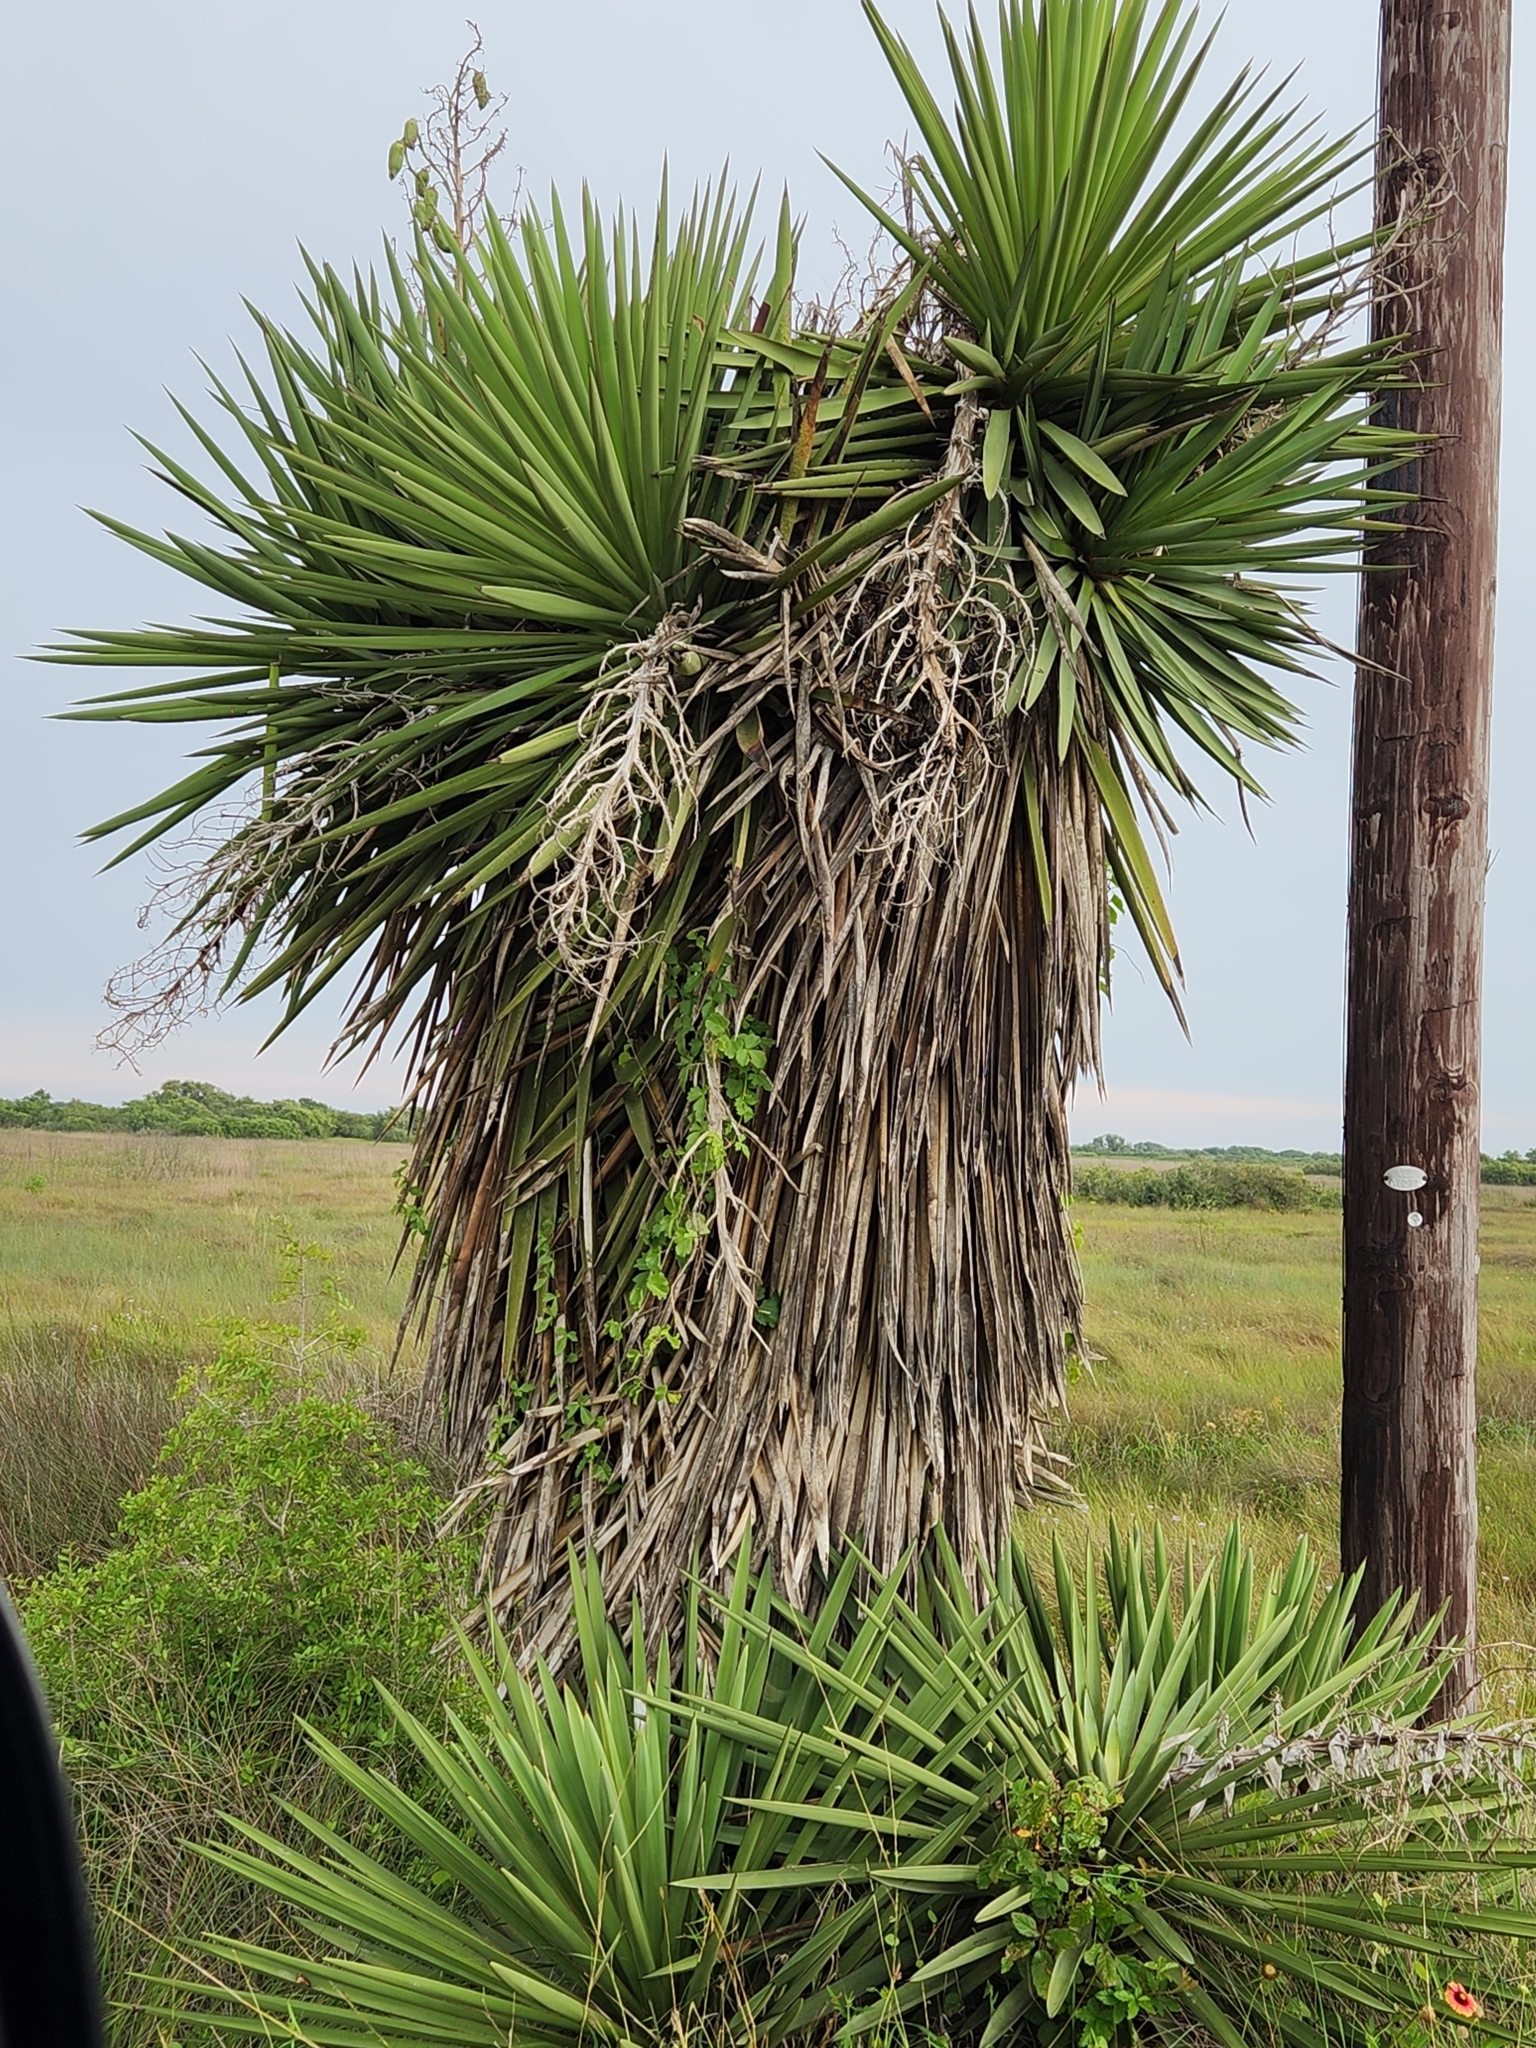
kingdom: Plantae
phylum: Tracheophyta
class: Liliopsida
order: Asparagales
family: Asparagaceae
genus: Yucca
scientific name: Yucca treculiana
